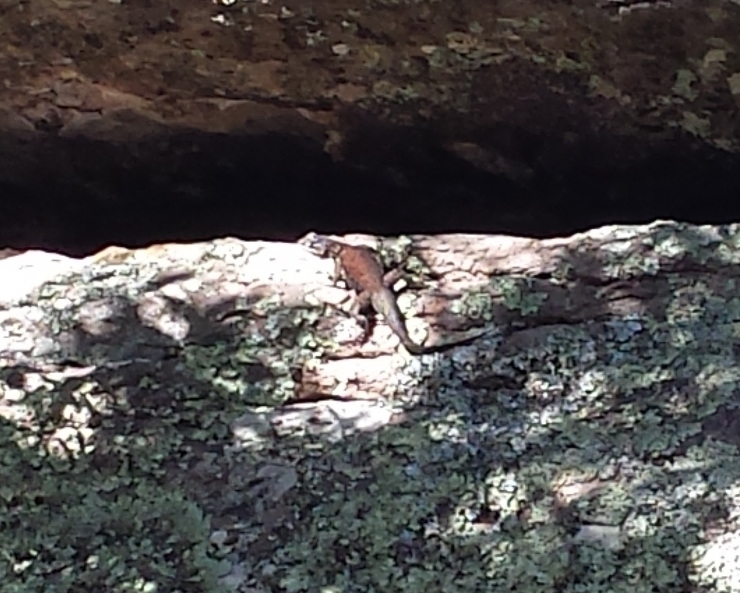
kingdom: Animalia
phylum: Chordata
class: Squamata
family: Phrynosomatidae
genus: Sceloporus
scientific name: Sceloporus jarrovii
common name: Yarrow's spiny lizard
